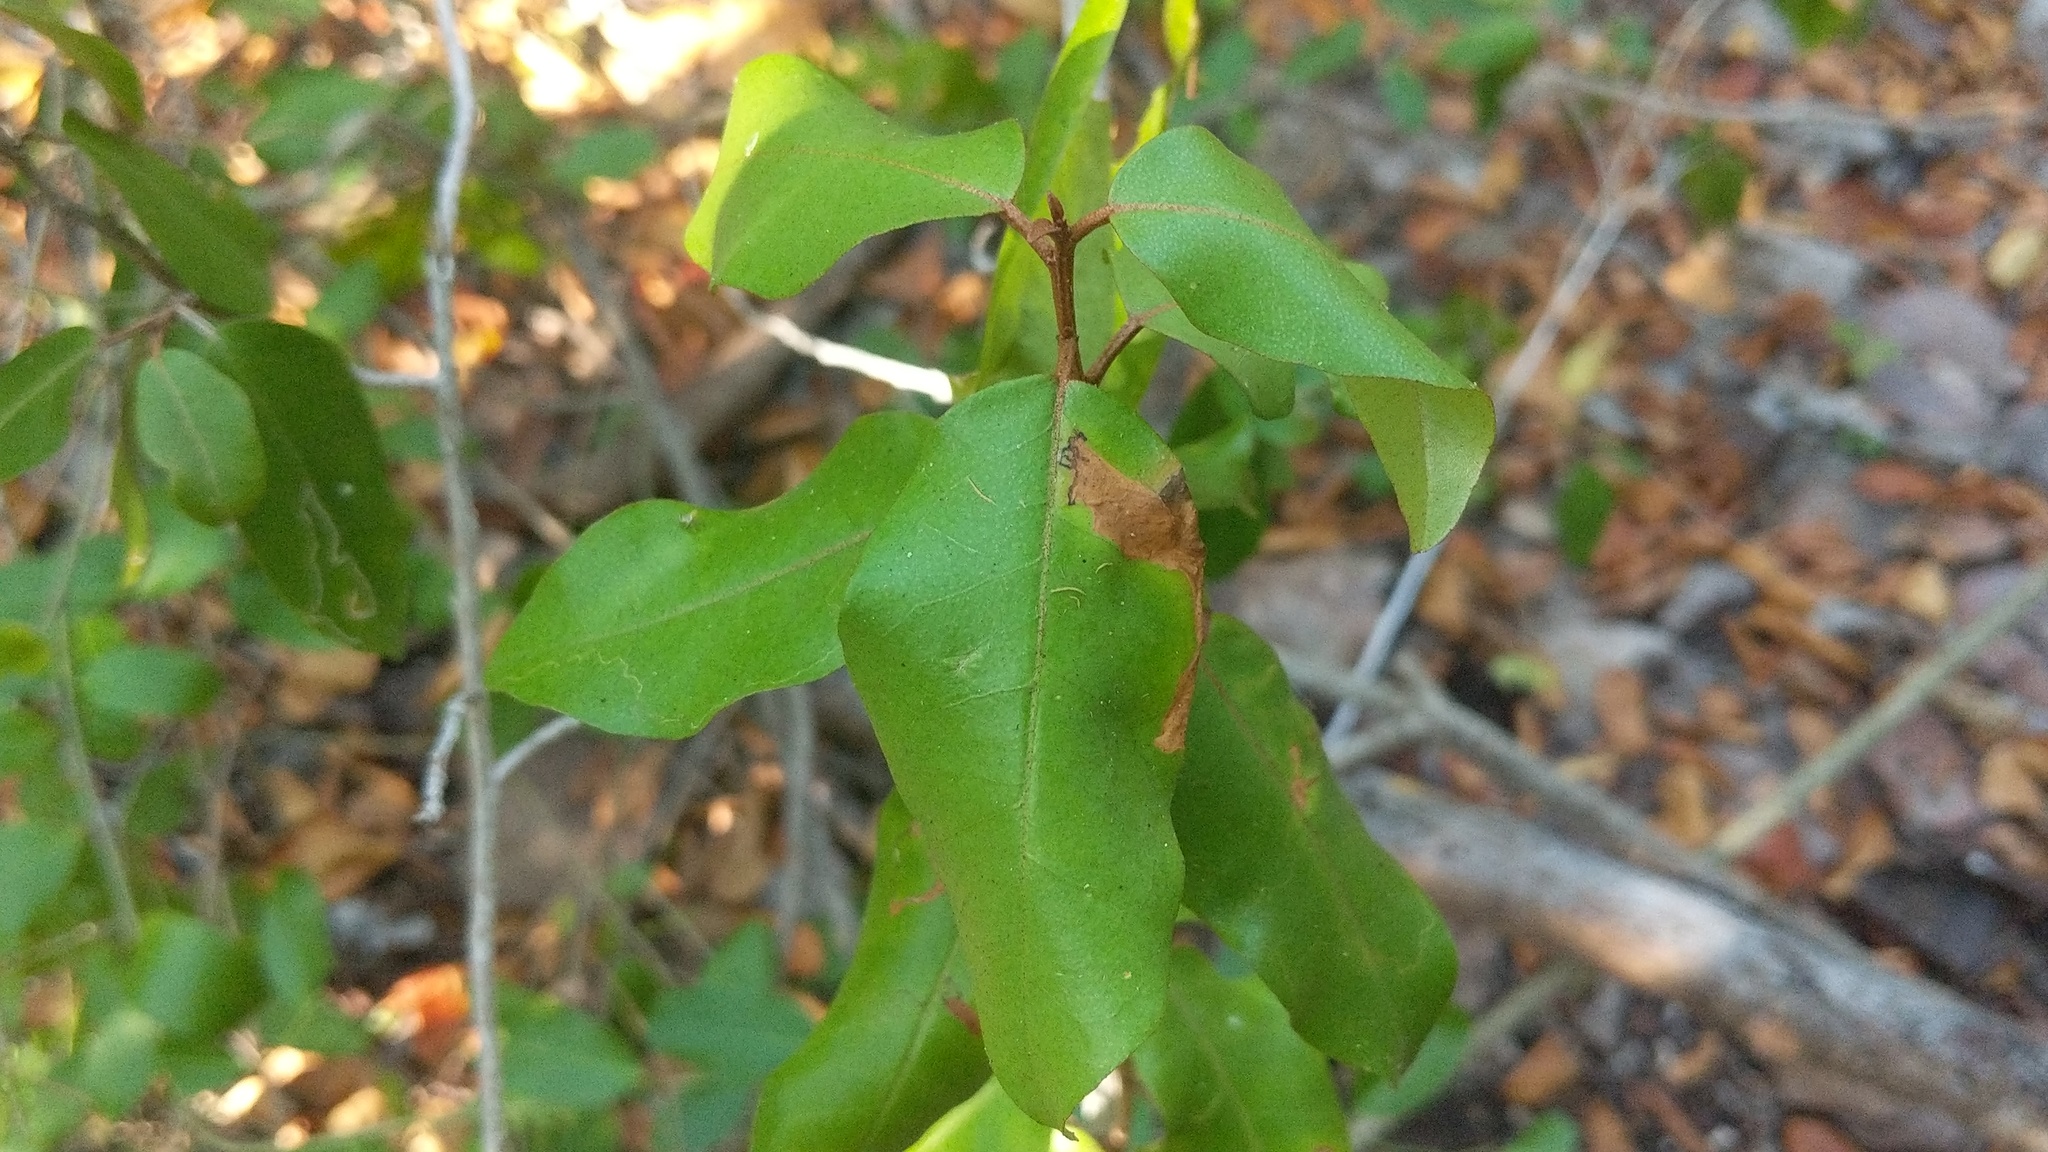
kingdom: Plantae
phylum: Tracheophyta
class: Magnoliopsida
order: Malpighiales
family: Euphorbiaceae
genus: Croton
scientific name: Croton nitens
